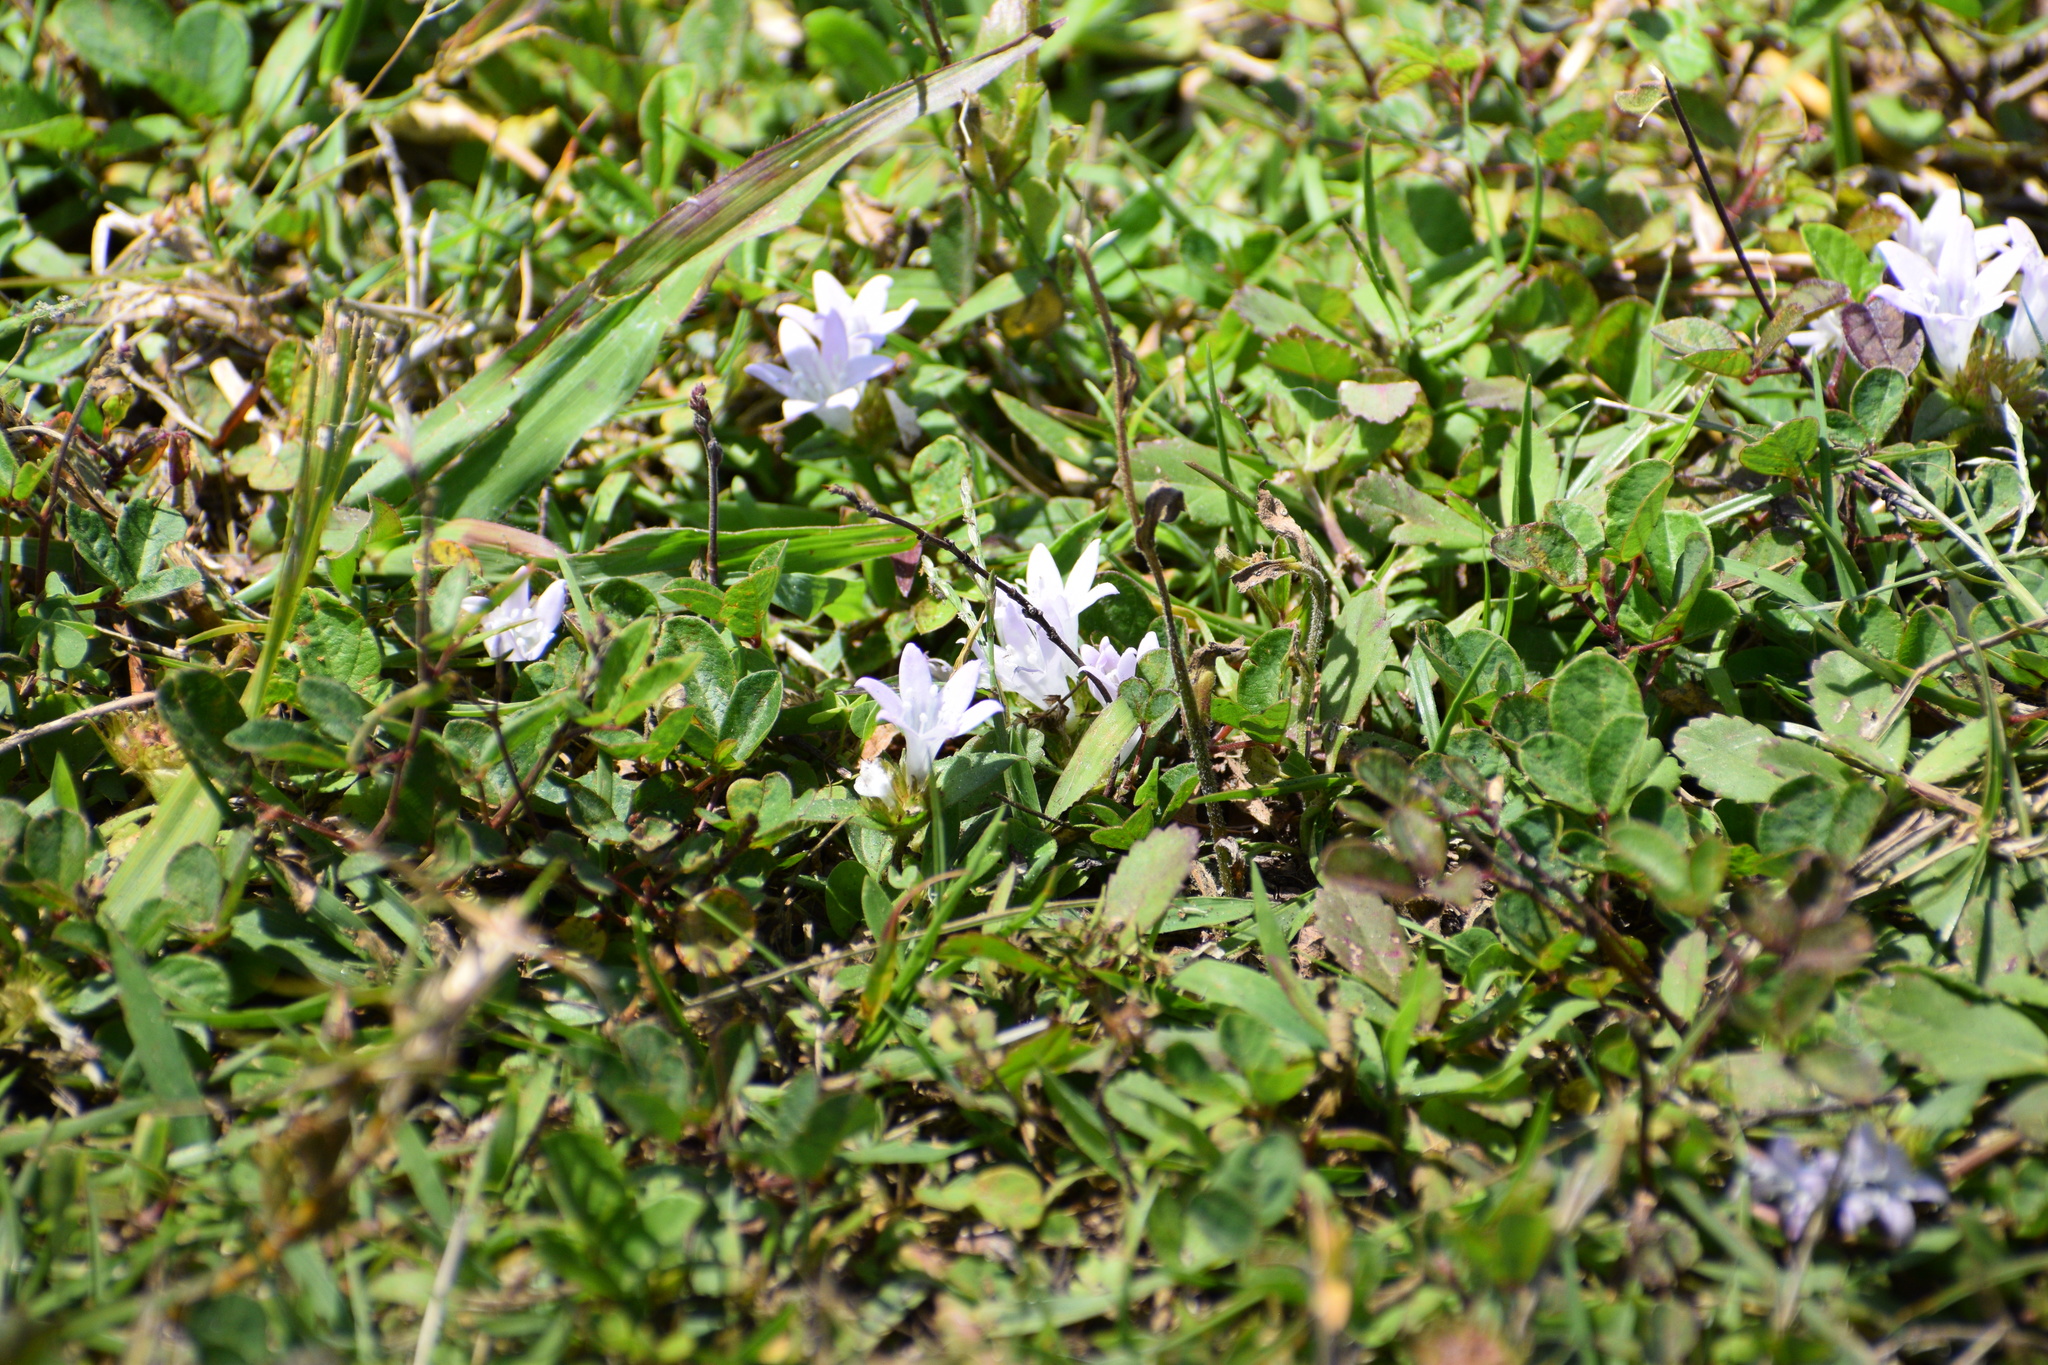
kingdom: Plantae
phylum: Tracheophyta
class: Magnoliopsida
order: Gentianales
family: Rubiaceae
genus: Richardia
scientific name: Richardia grandiflora
